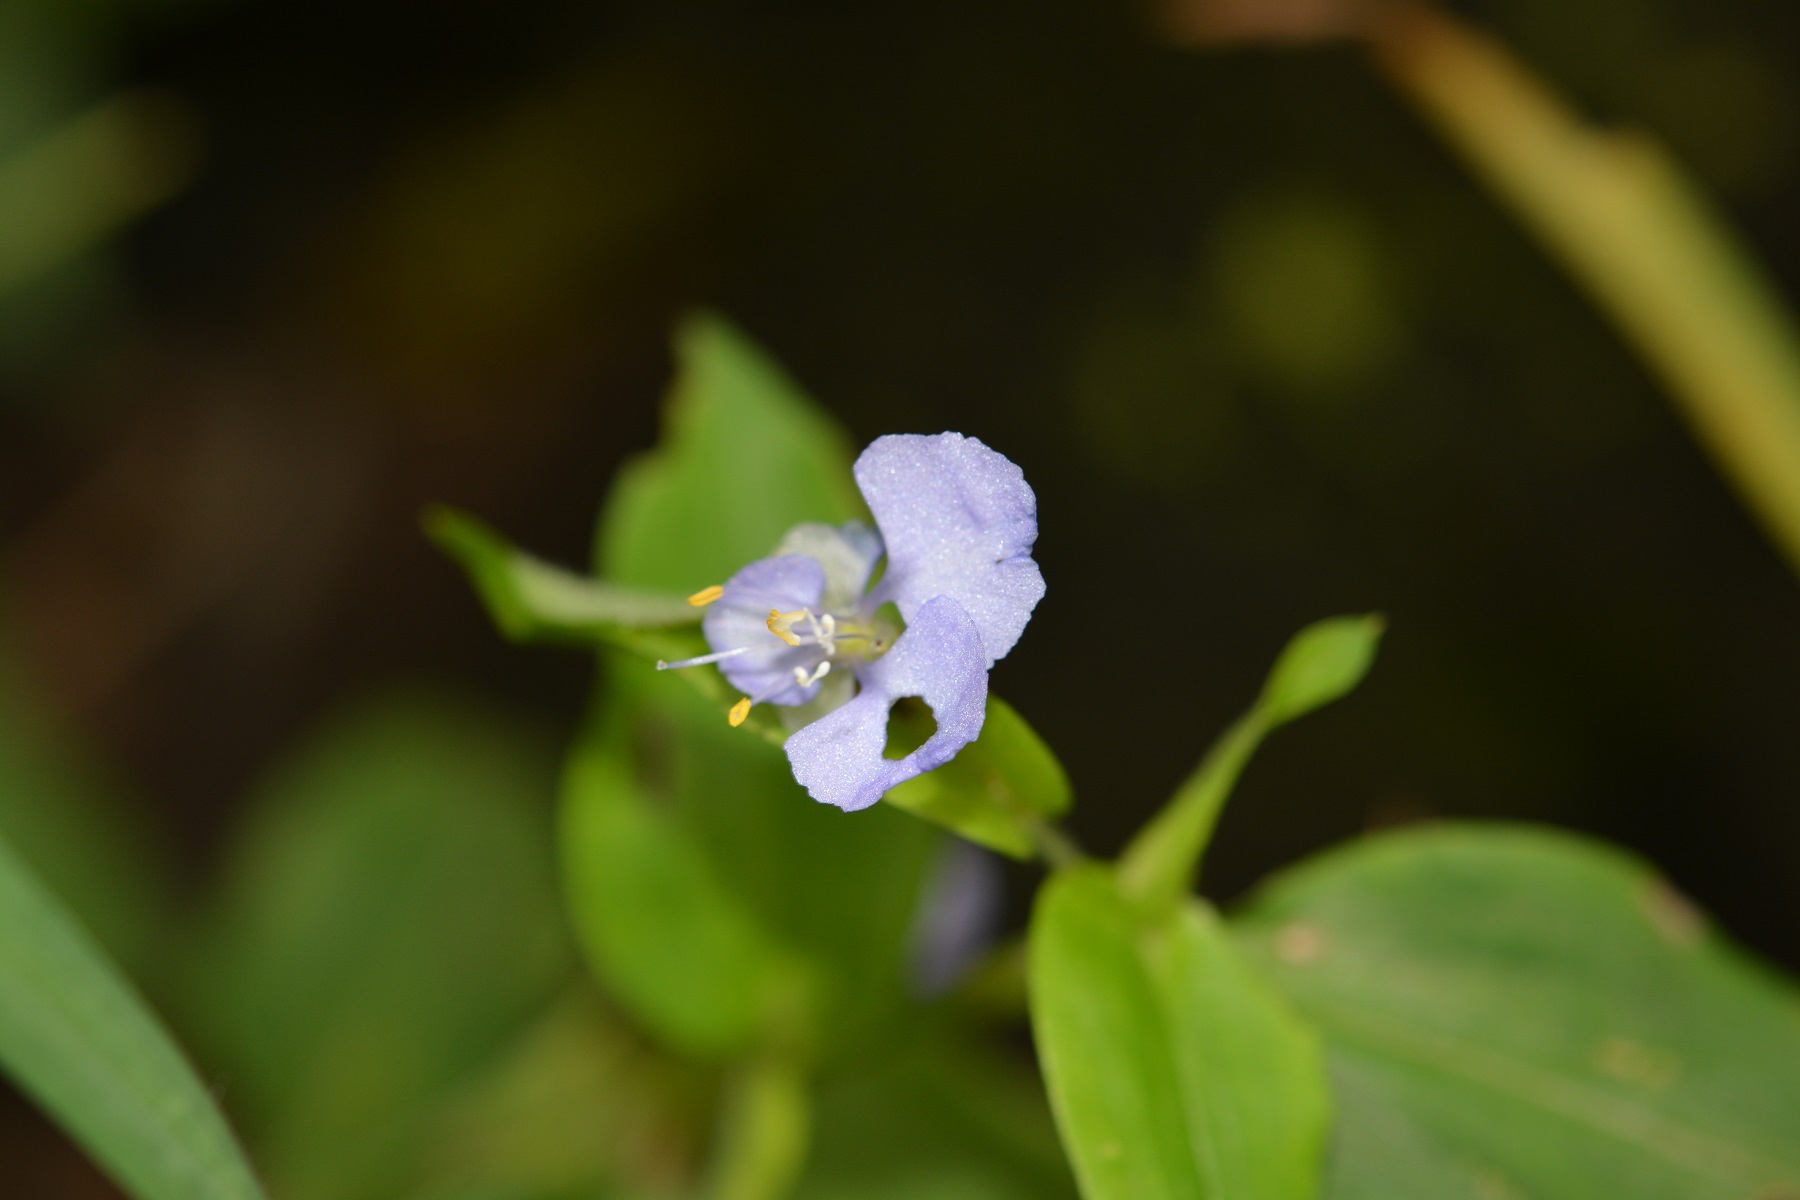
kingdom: Plantae
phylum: Tracheophyta
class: Liliopsida
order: Commelinales
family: Commelinaceae
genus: Commelina
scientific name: Commelina diffusa
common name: Climbing dayflower
